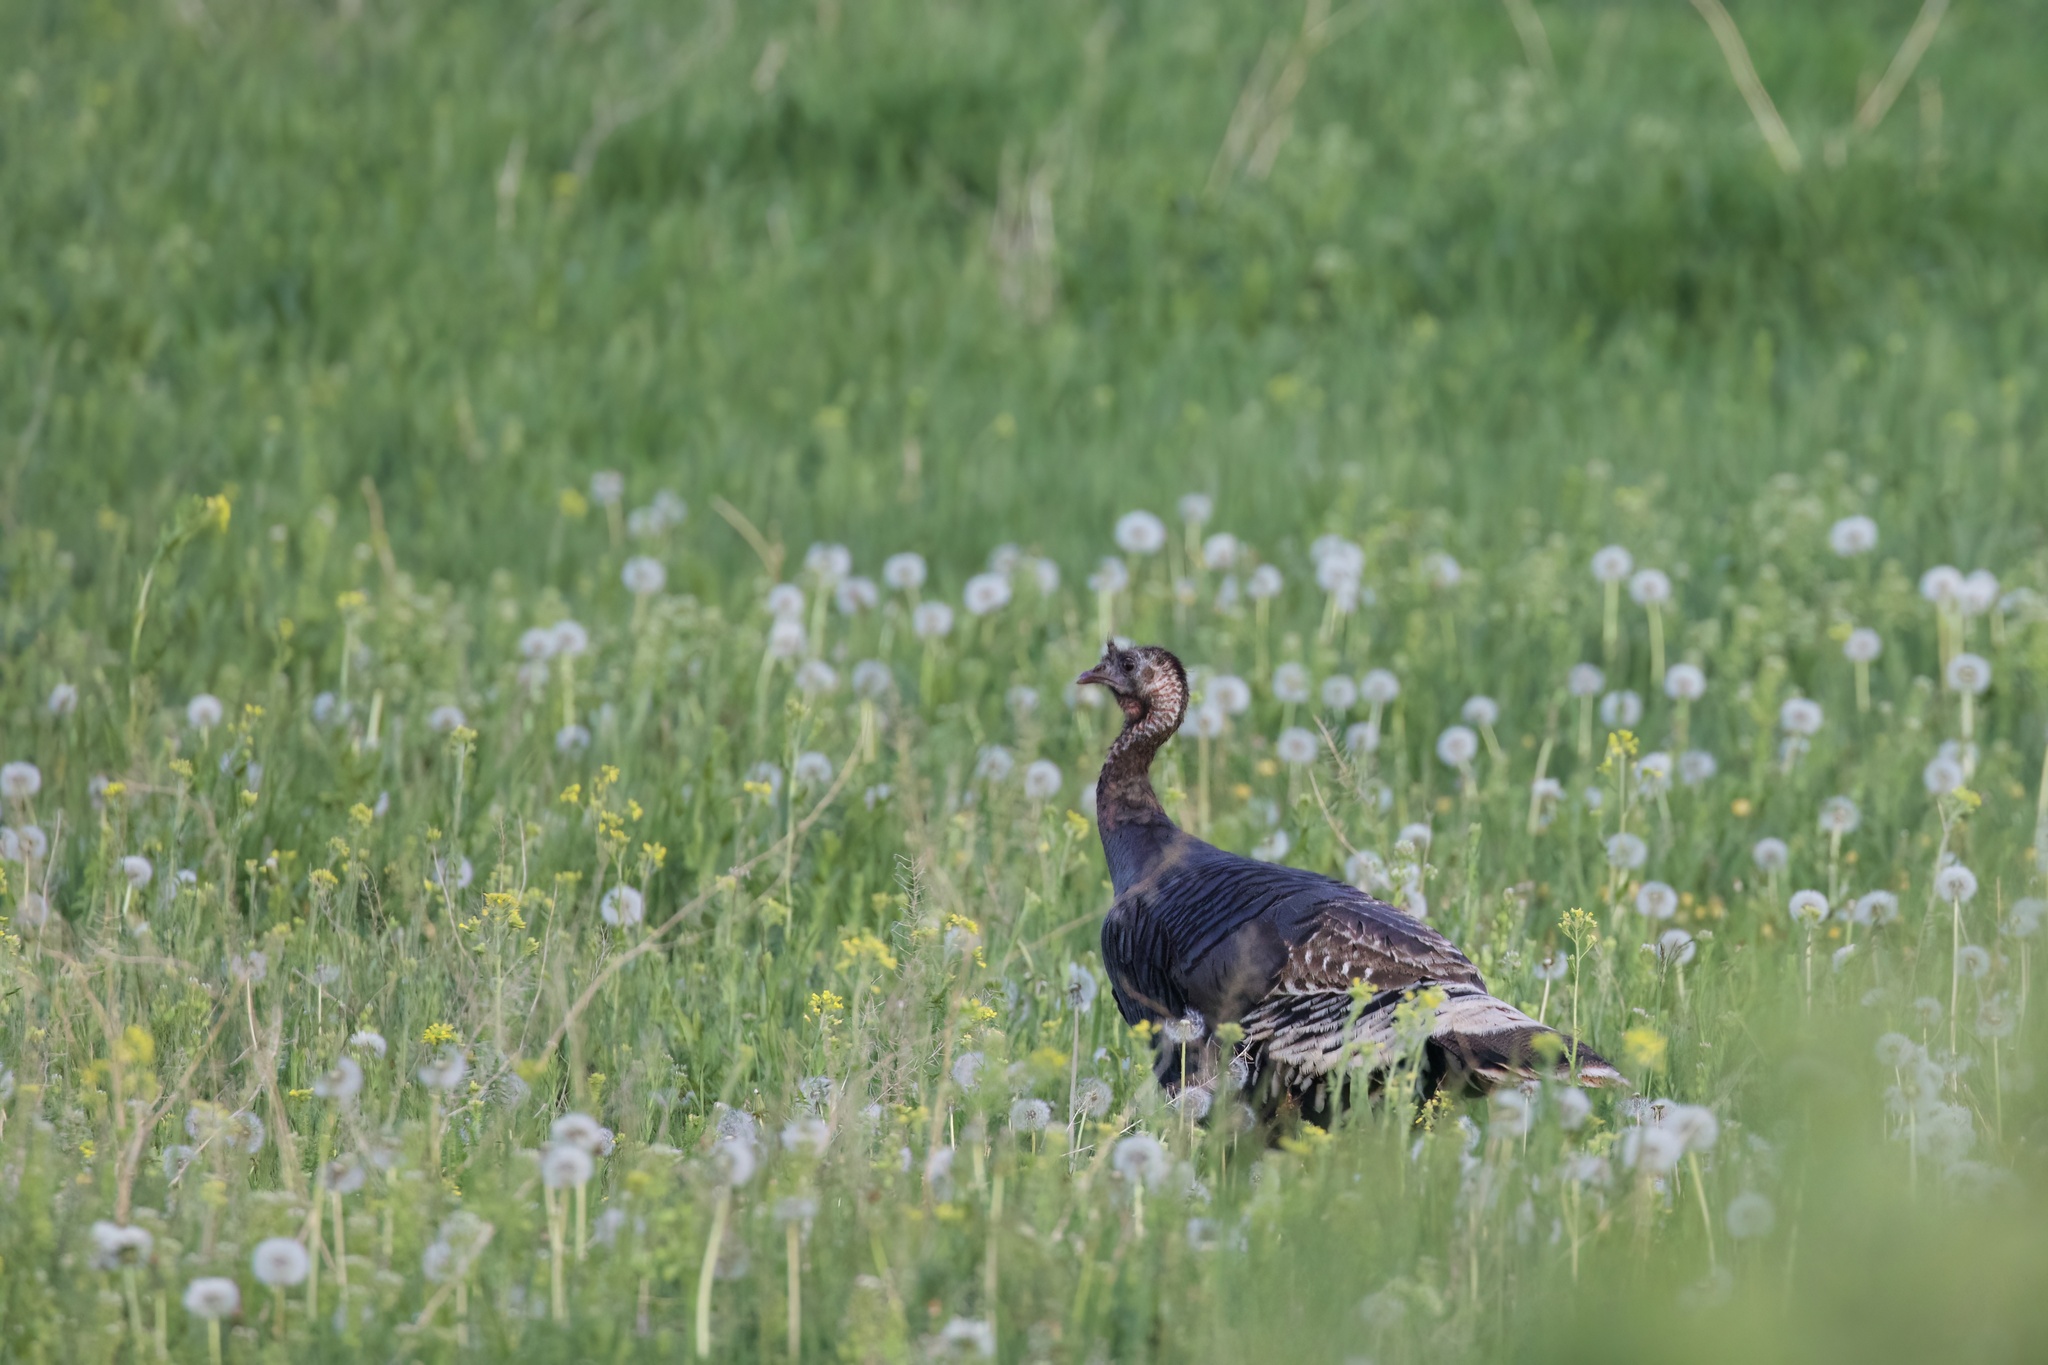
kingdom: Animalia
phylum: Chordata
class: Aves
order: Galliformes
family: Phasianidae
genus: Meleagris
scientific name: Meleagris gallopavo
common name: Wild turkey
